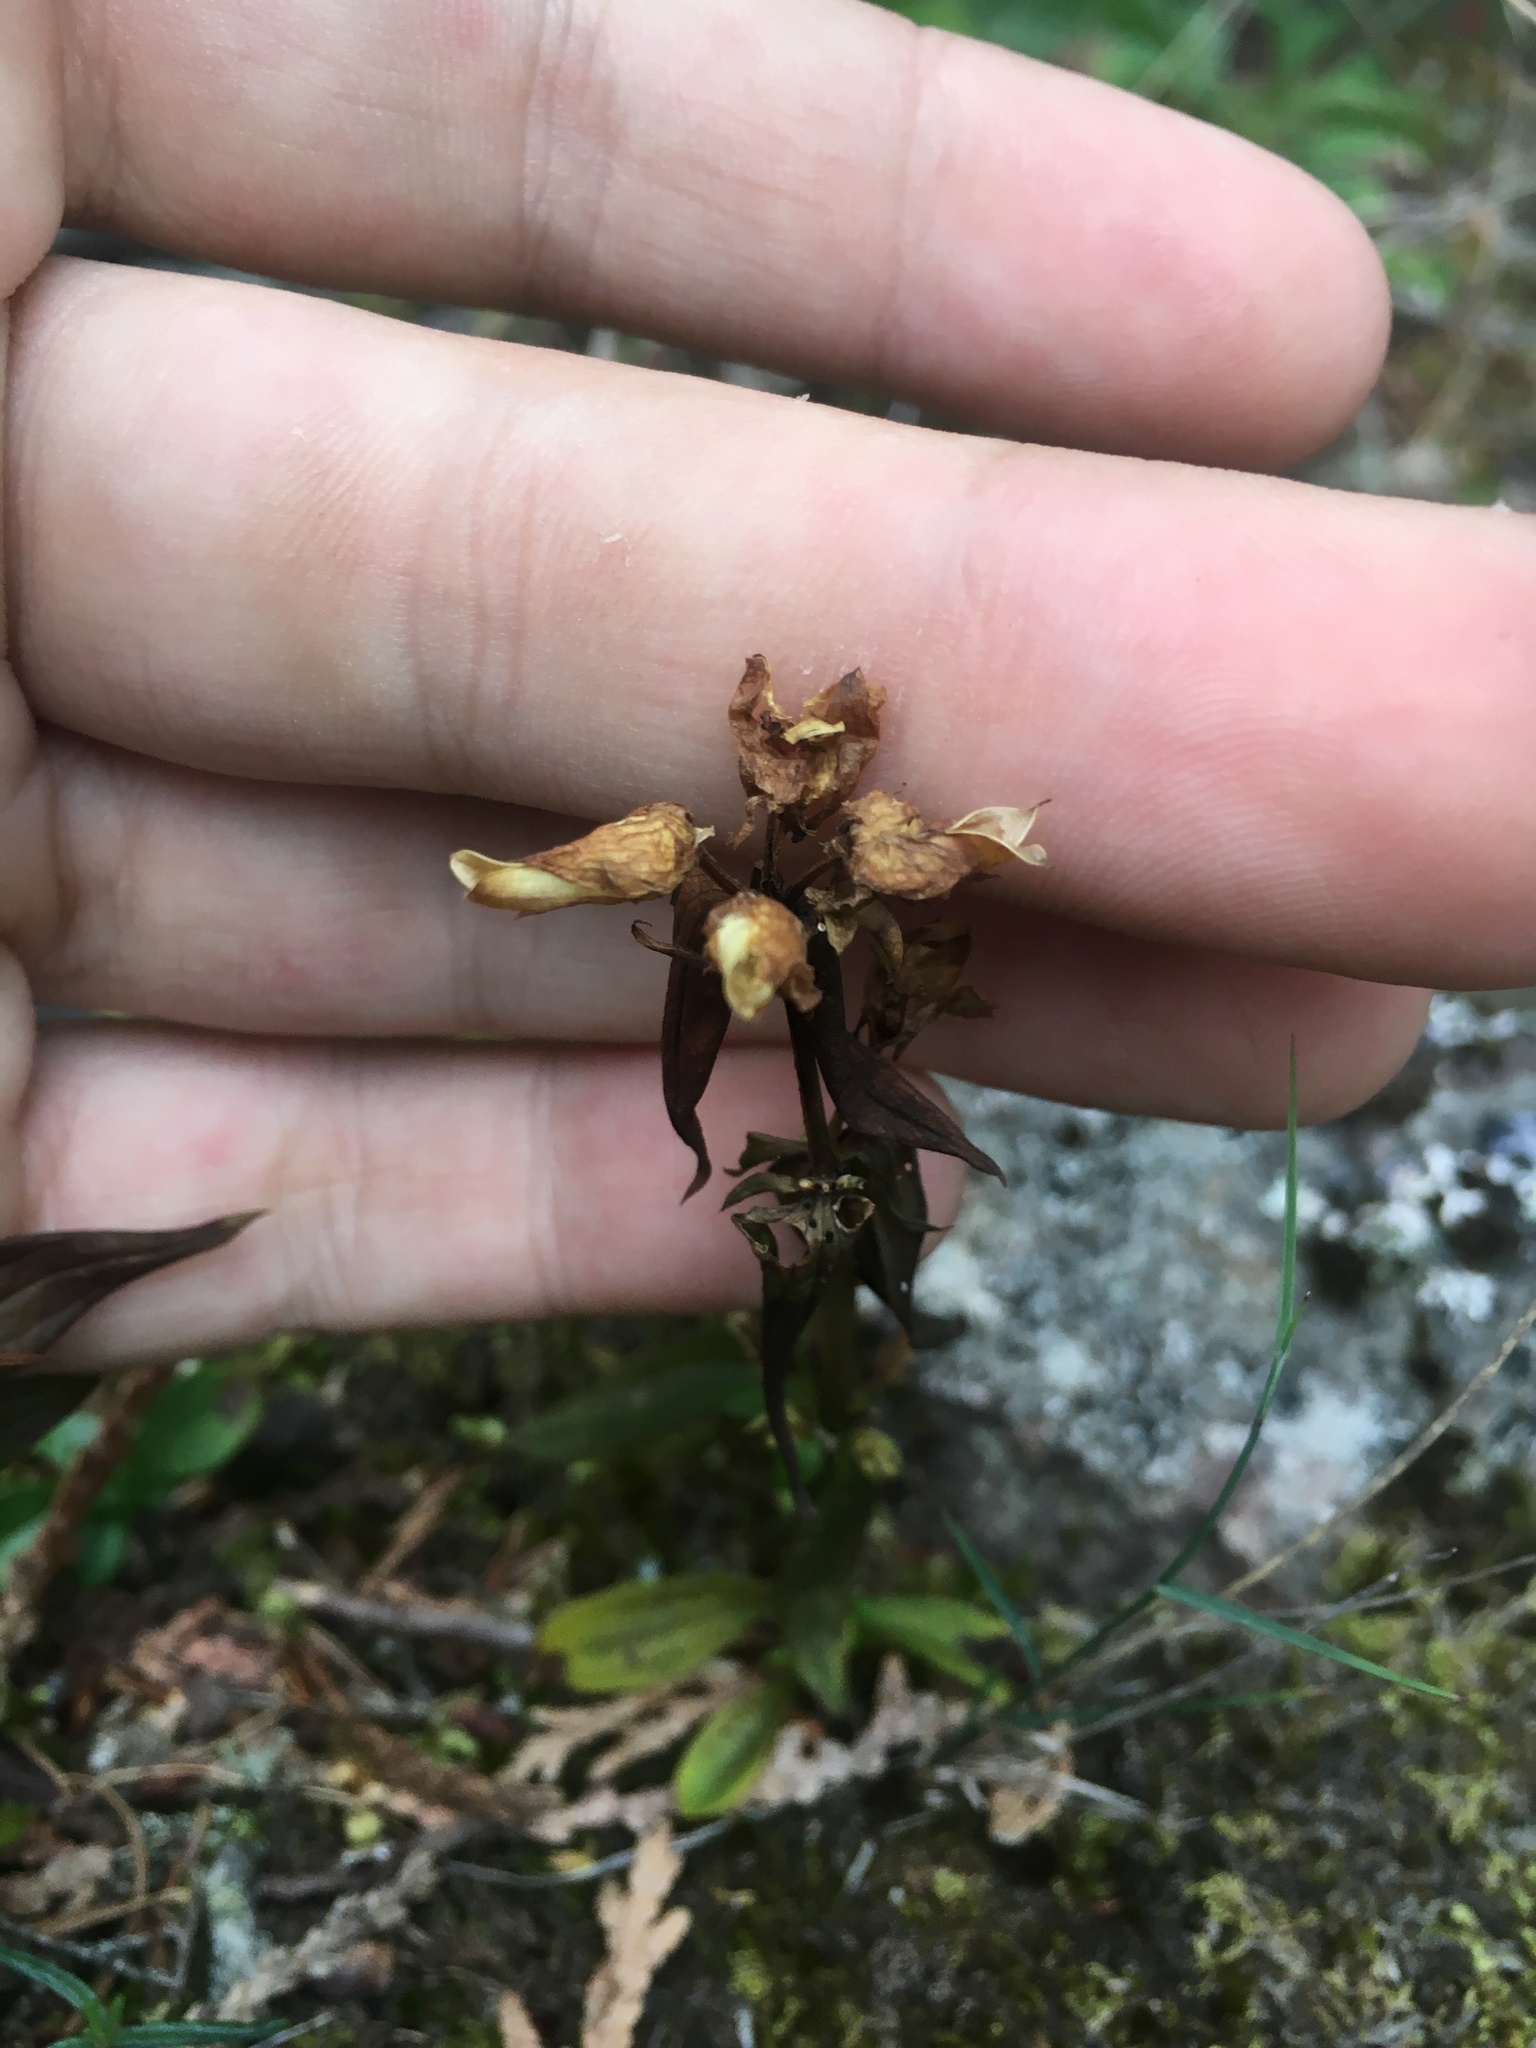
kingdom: Plantae
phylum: Tracheophyta
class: Magnoliopsida
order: Gentianales
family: Gentianaceae
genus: Halenia
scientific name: Halenia deflexa
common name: American spurred gentian
